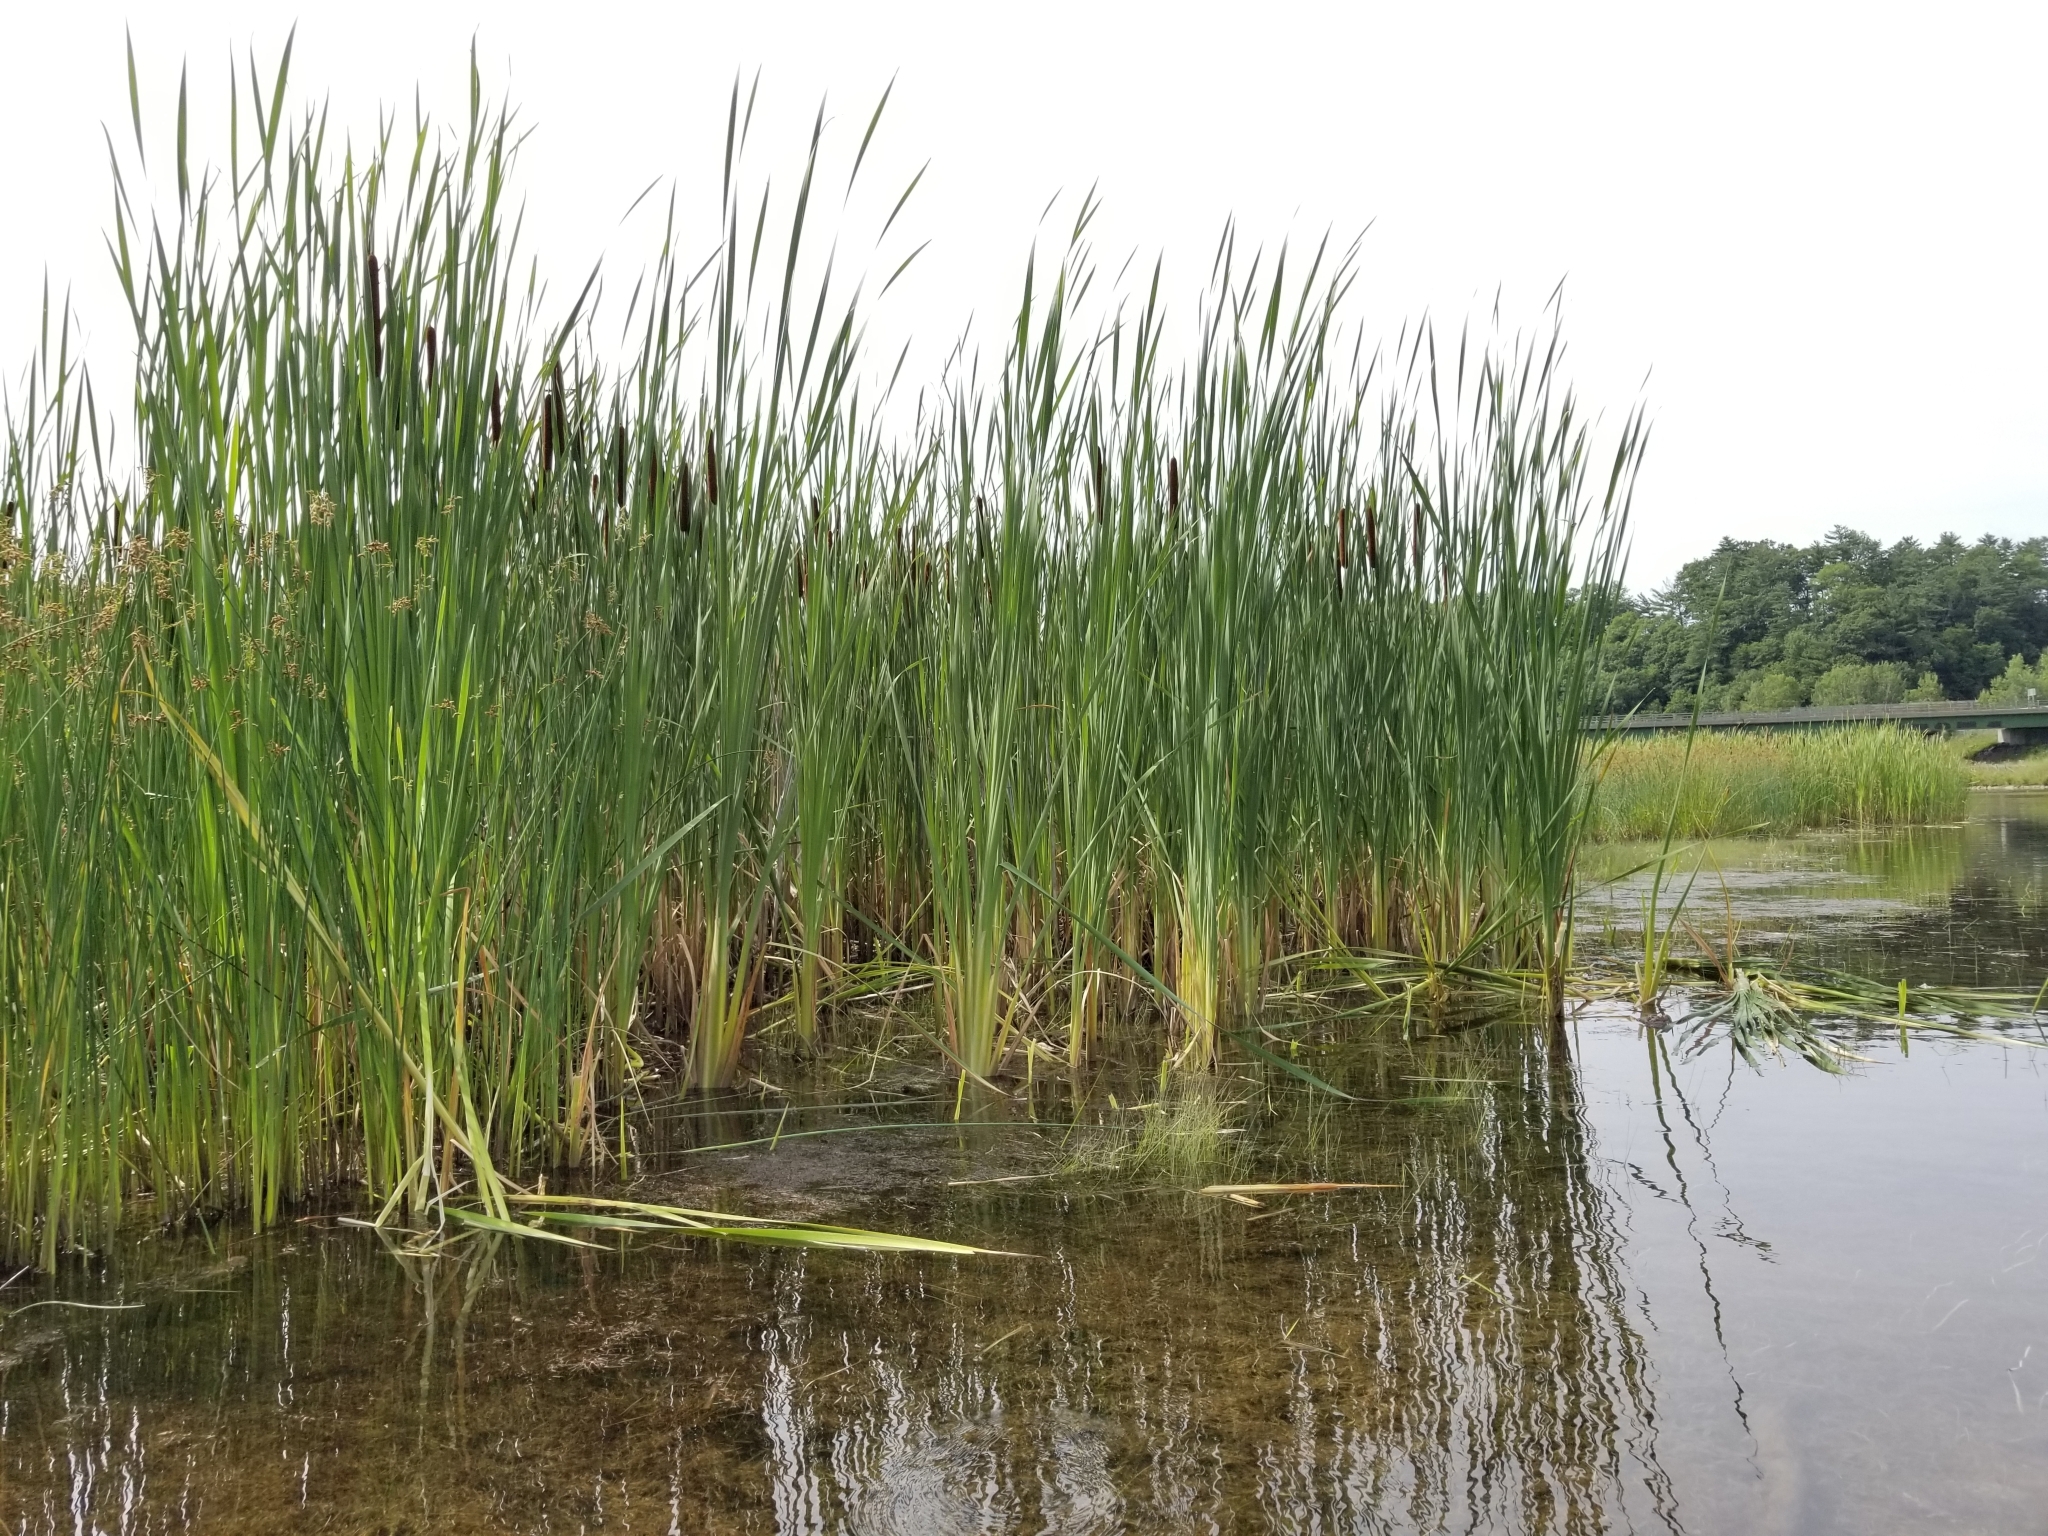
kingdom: Plantae
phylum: Tracheophyta
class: Liliopsida
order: Poales
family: Typhaceae
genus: Typha
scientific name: Typha latifolia
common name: Broadleaf cattail
